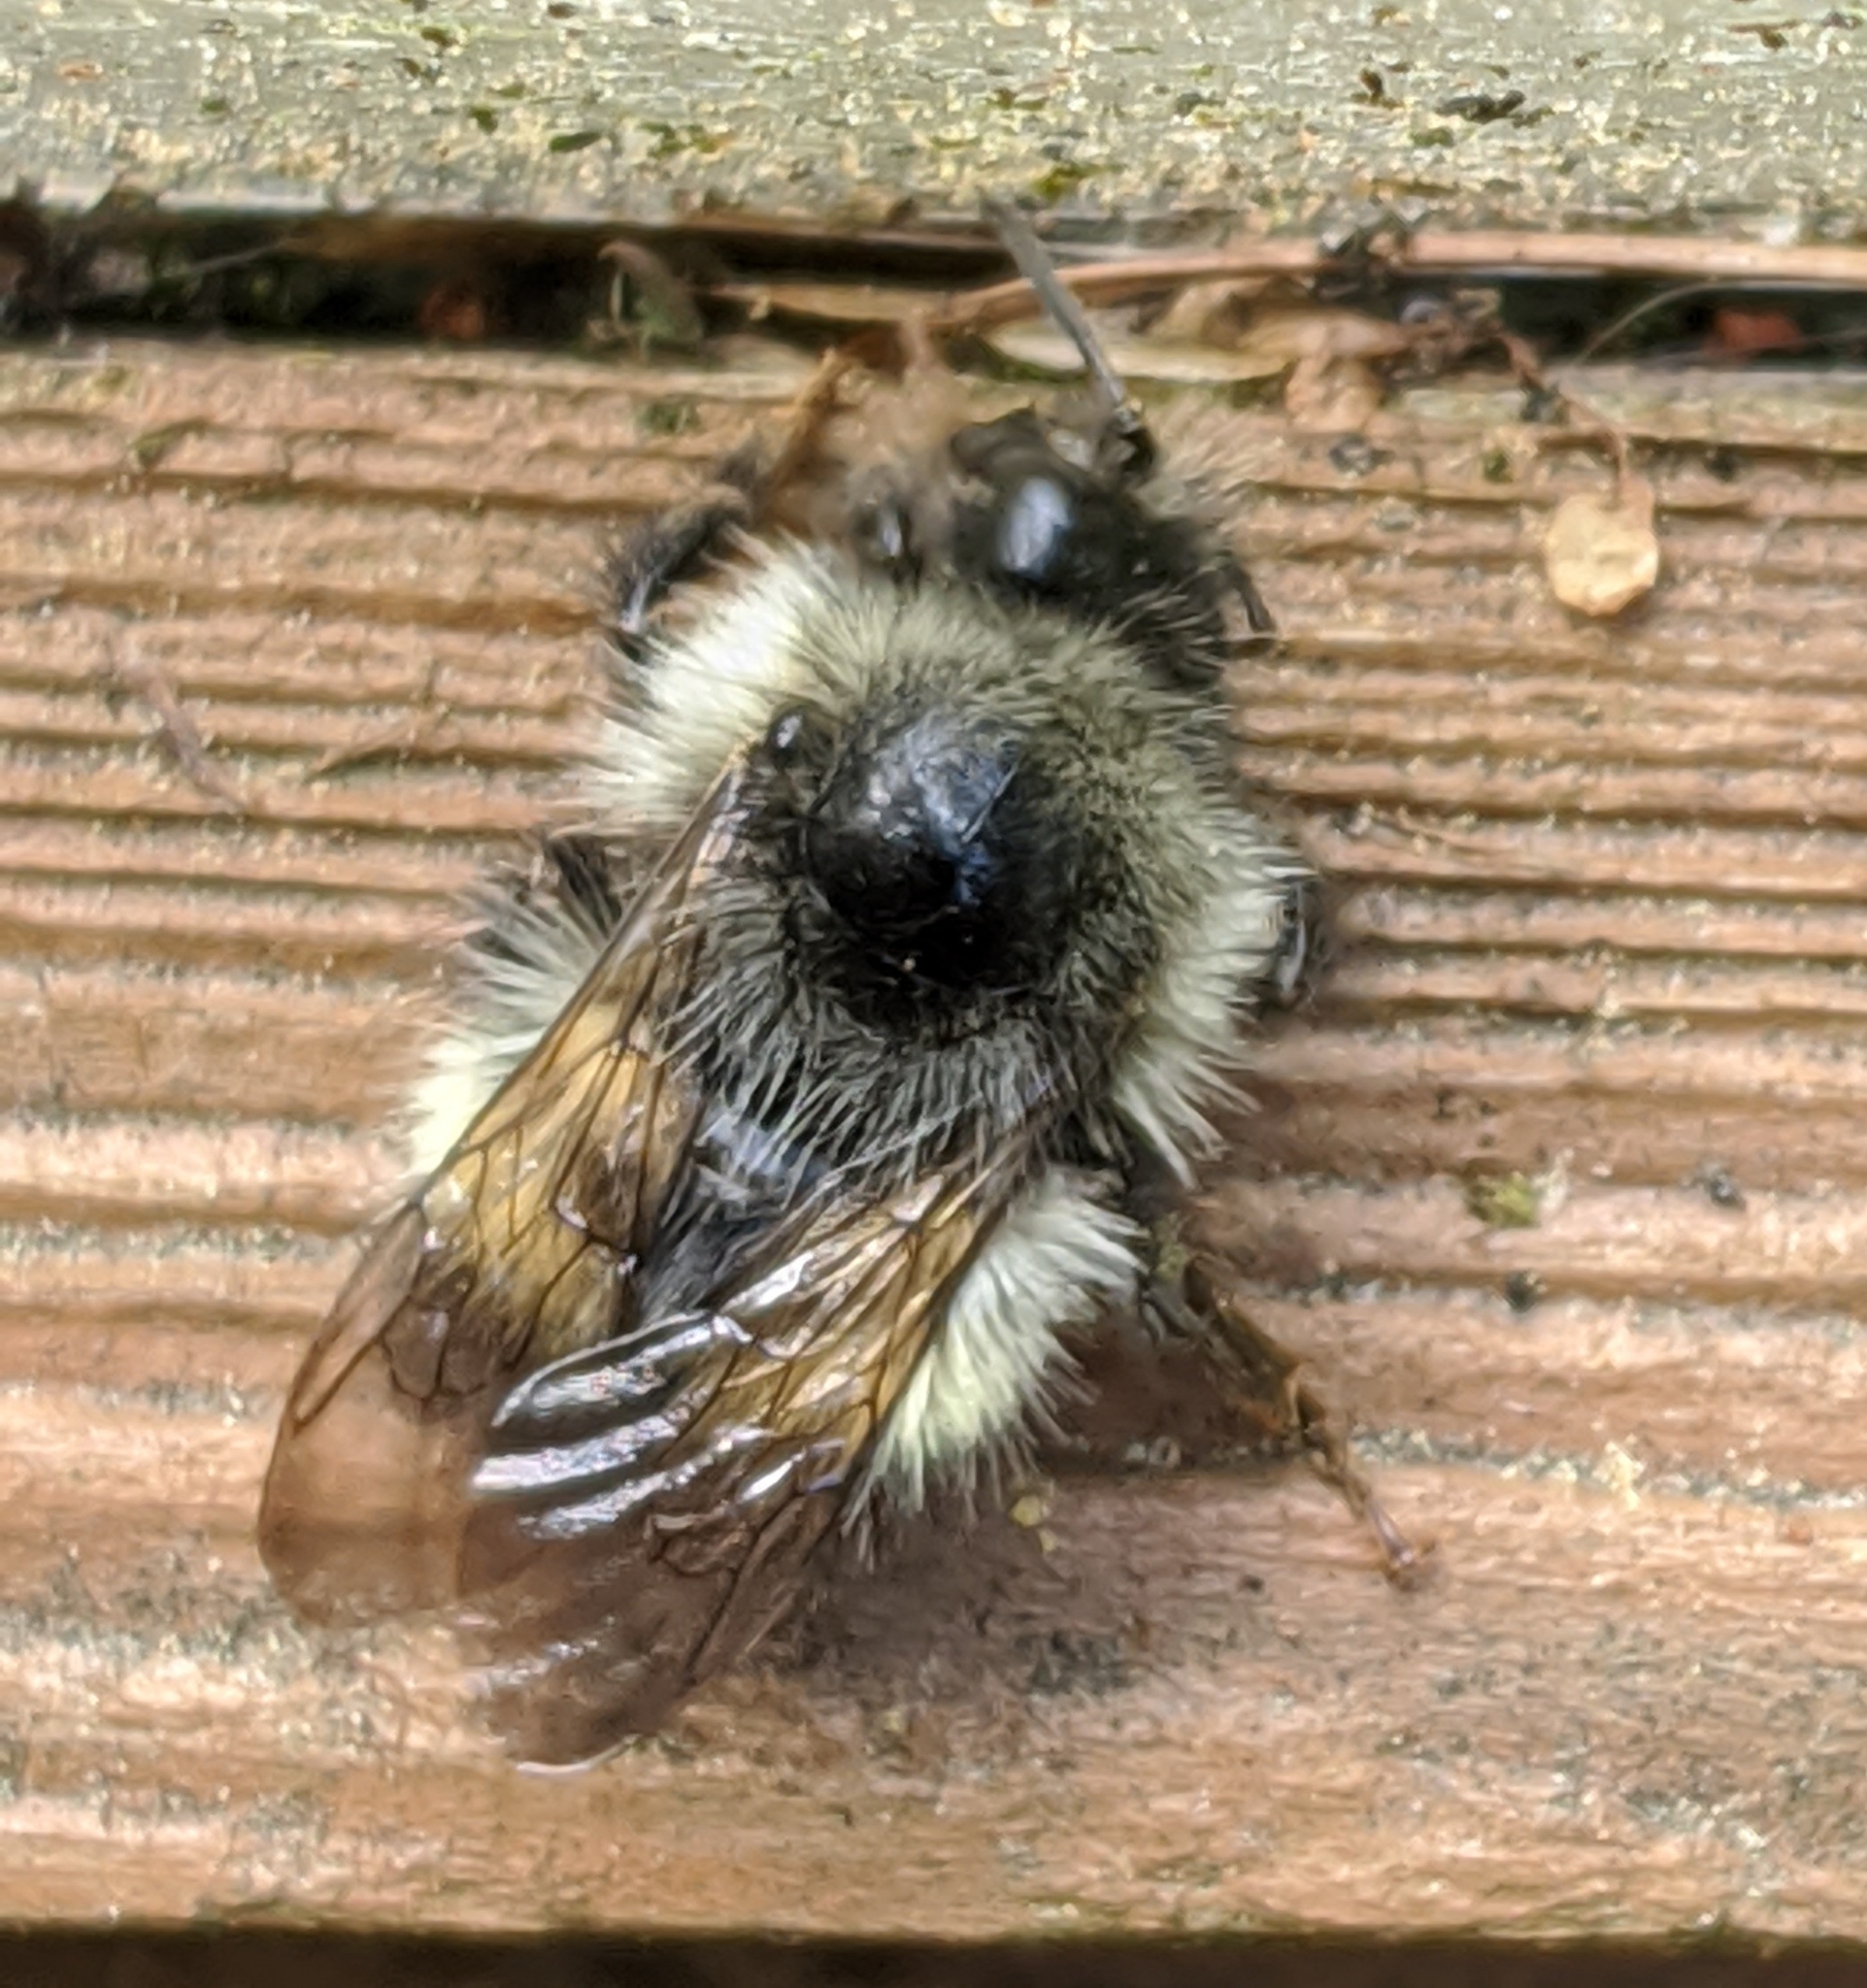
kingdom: Animalia
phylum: Arthropoda
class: Insecta
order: Hymenoptera
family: Apidae
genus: Bombus
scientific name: Bombus flavifrons
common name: Yellow head bumble bee
